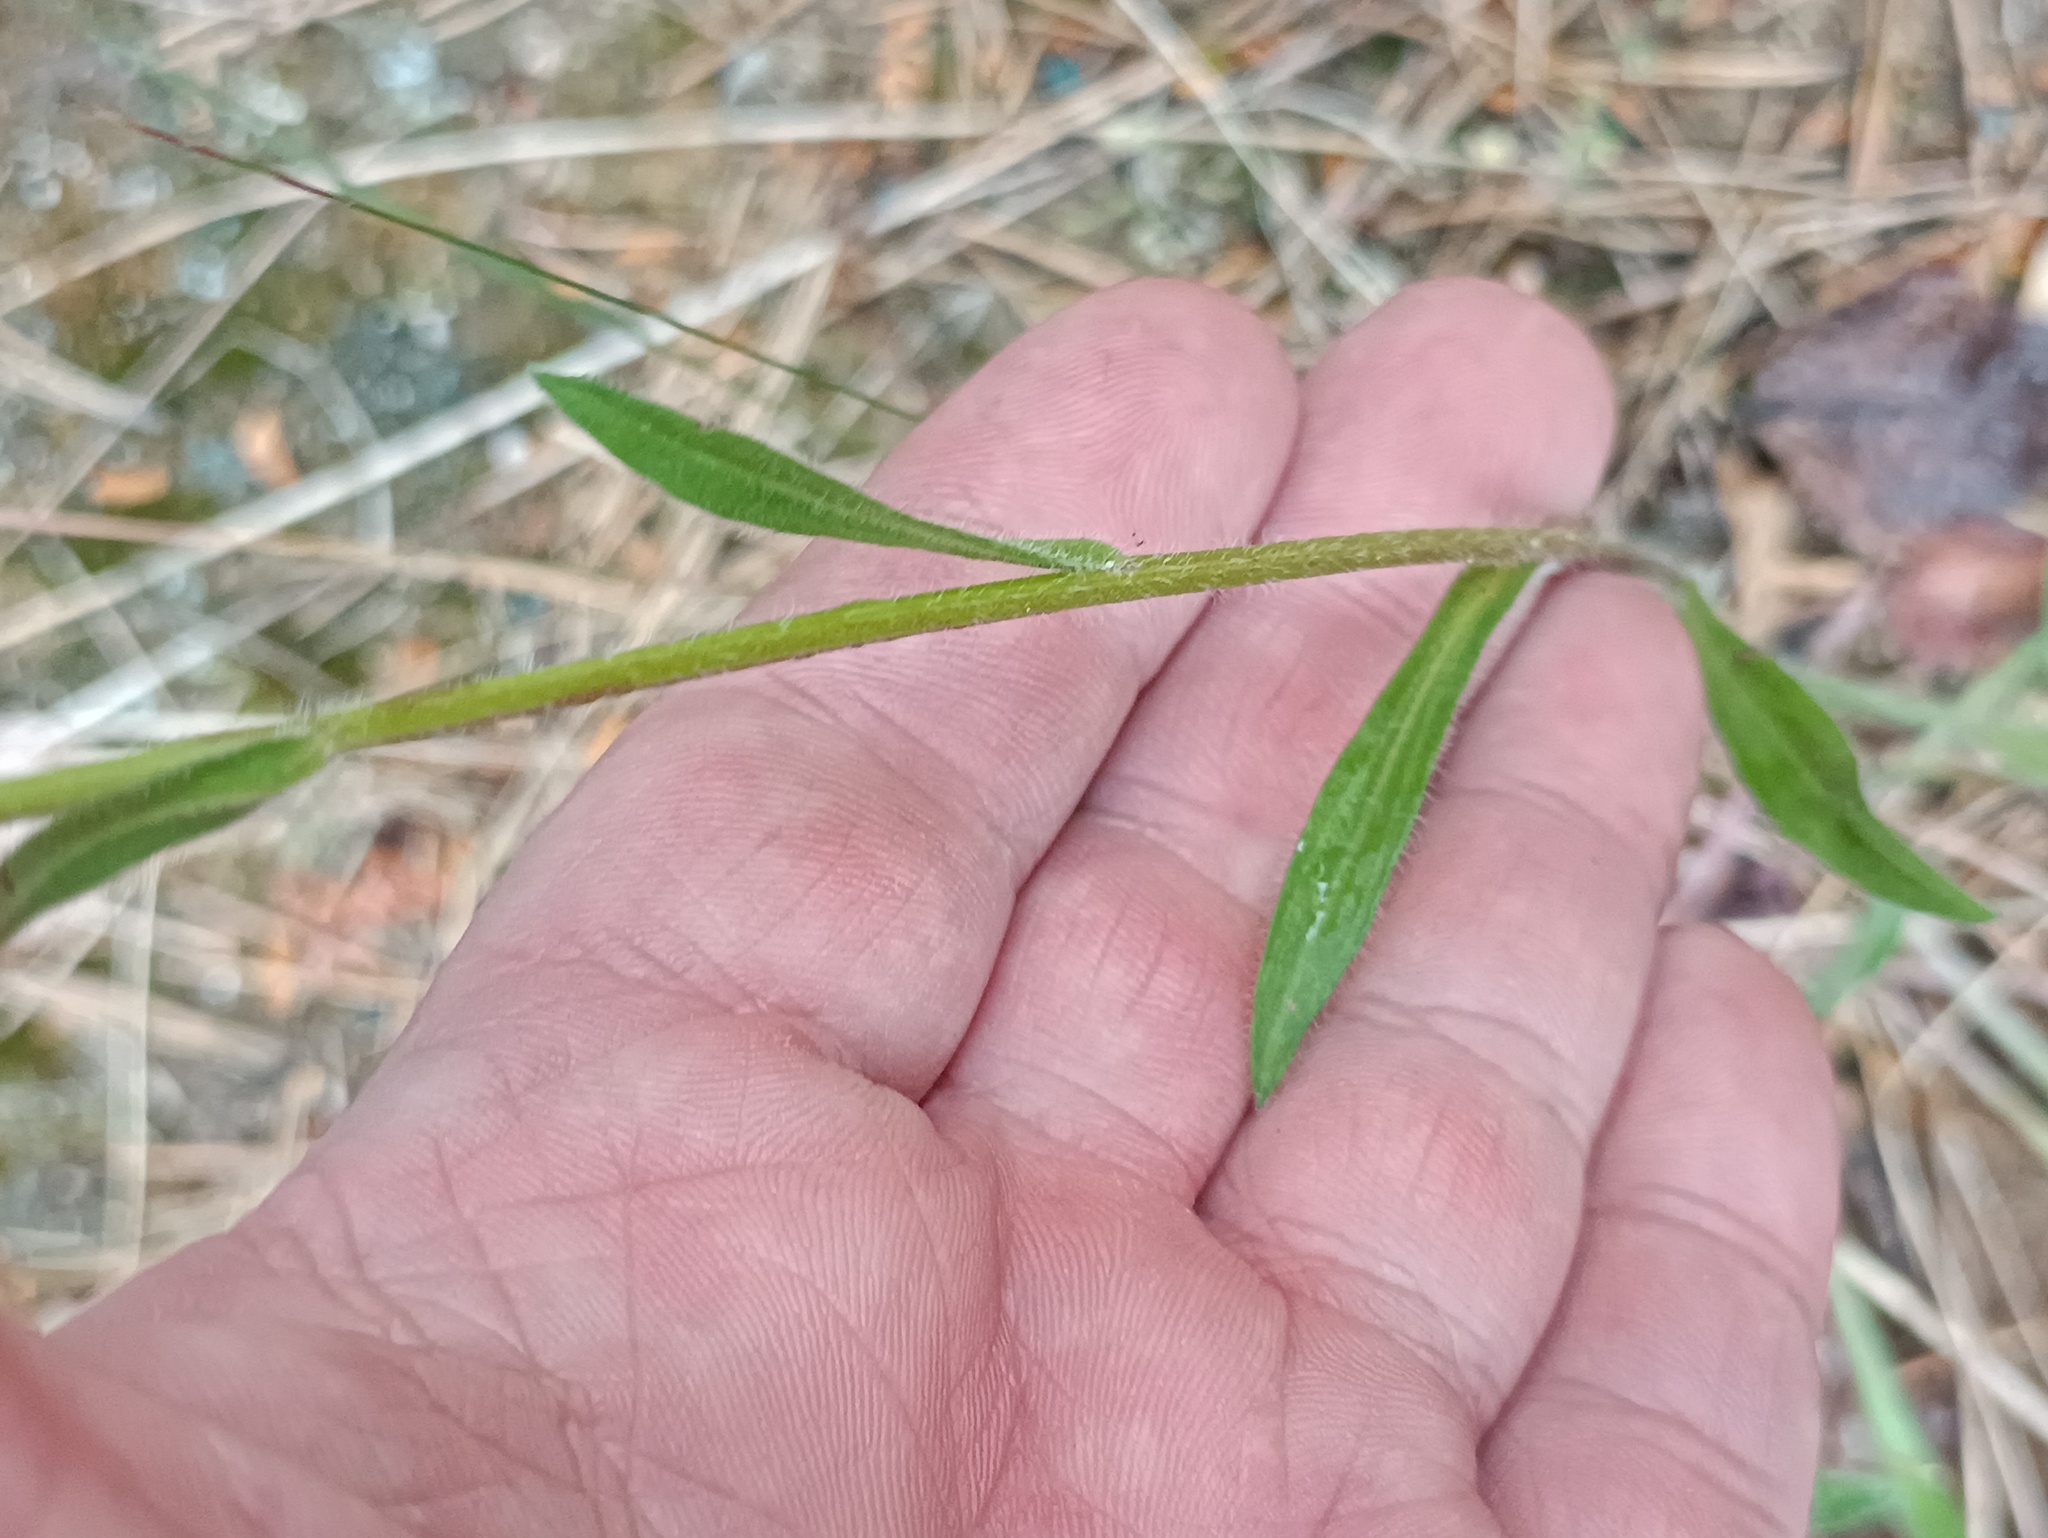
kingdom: Plantae
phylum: Tracheophyta
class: Magnoliopsida
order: Asterales
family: Asteraceae
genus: Erigeron
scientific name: Erigeron acris
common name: Blue fleabane
